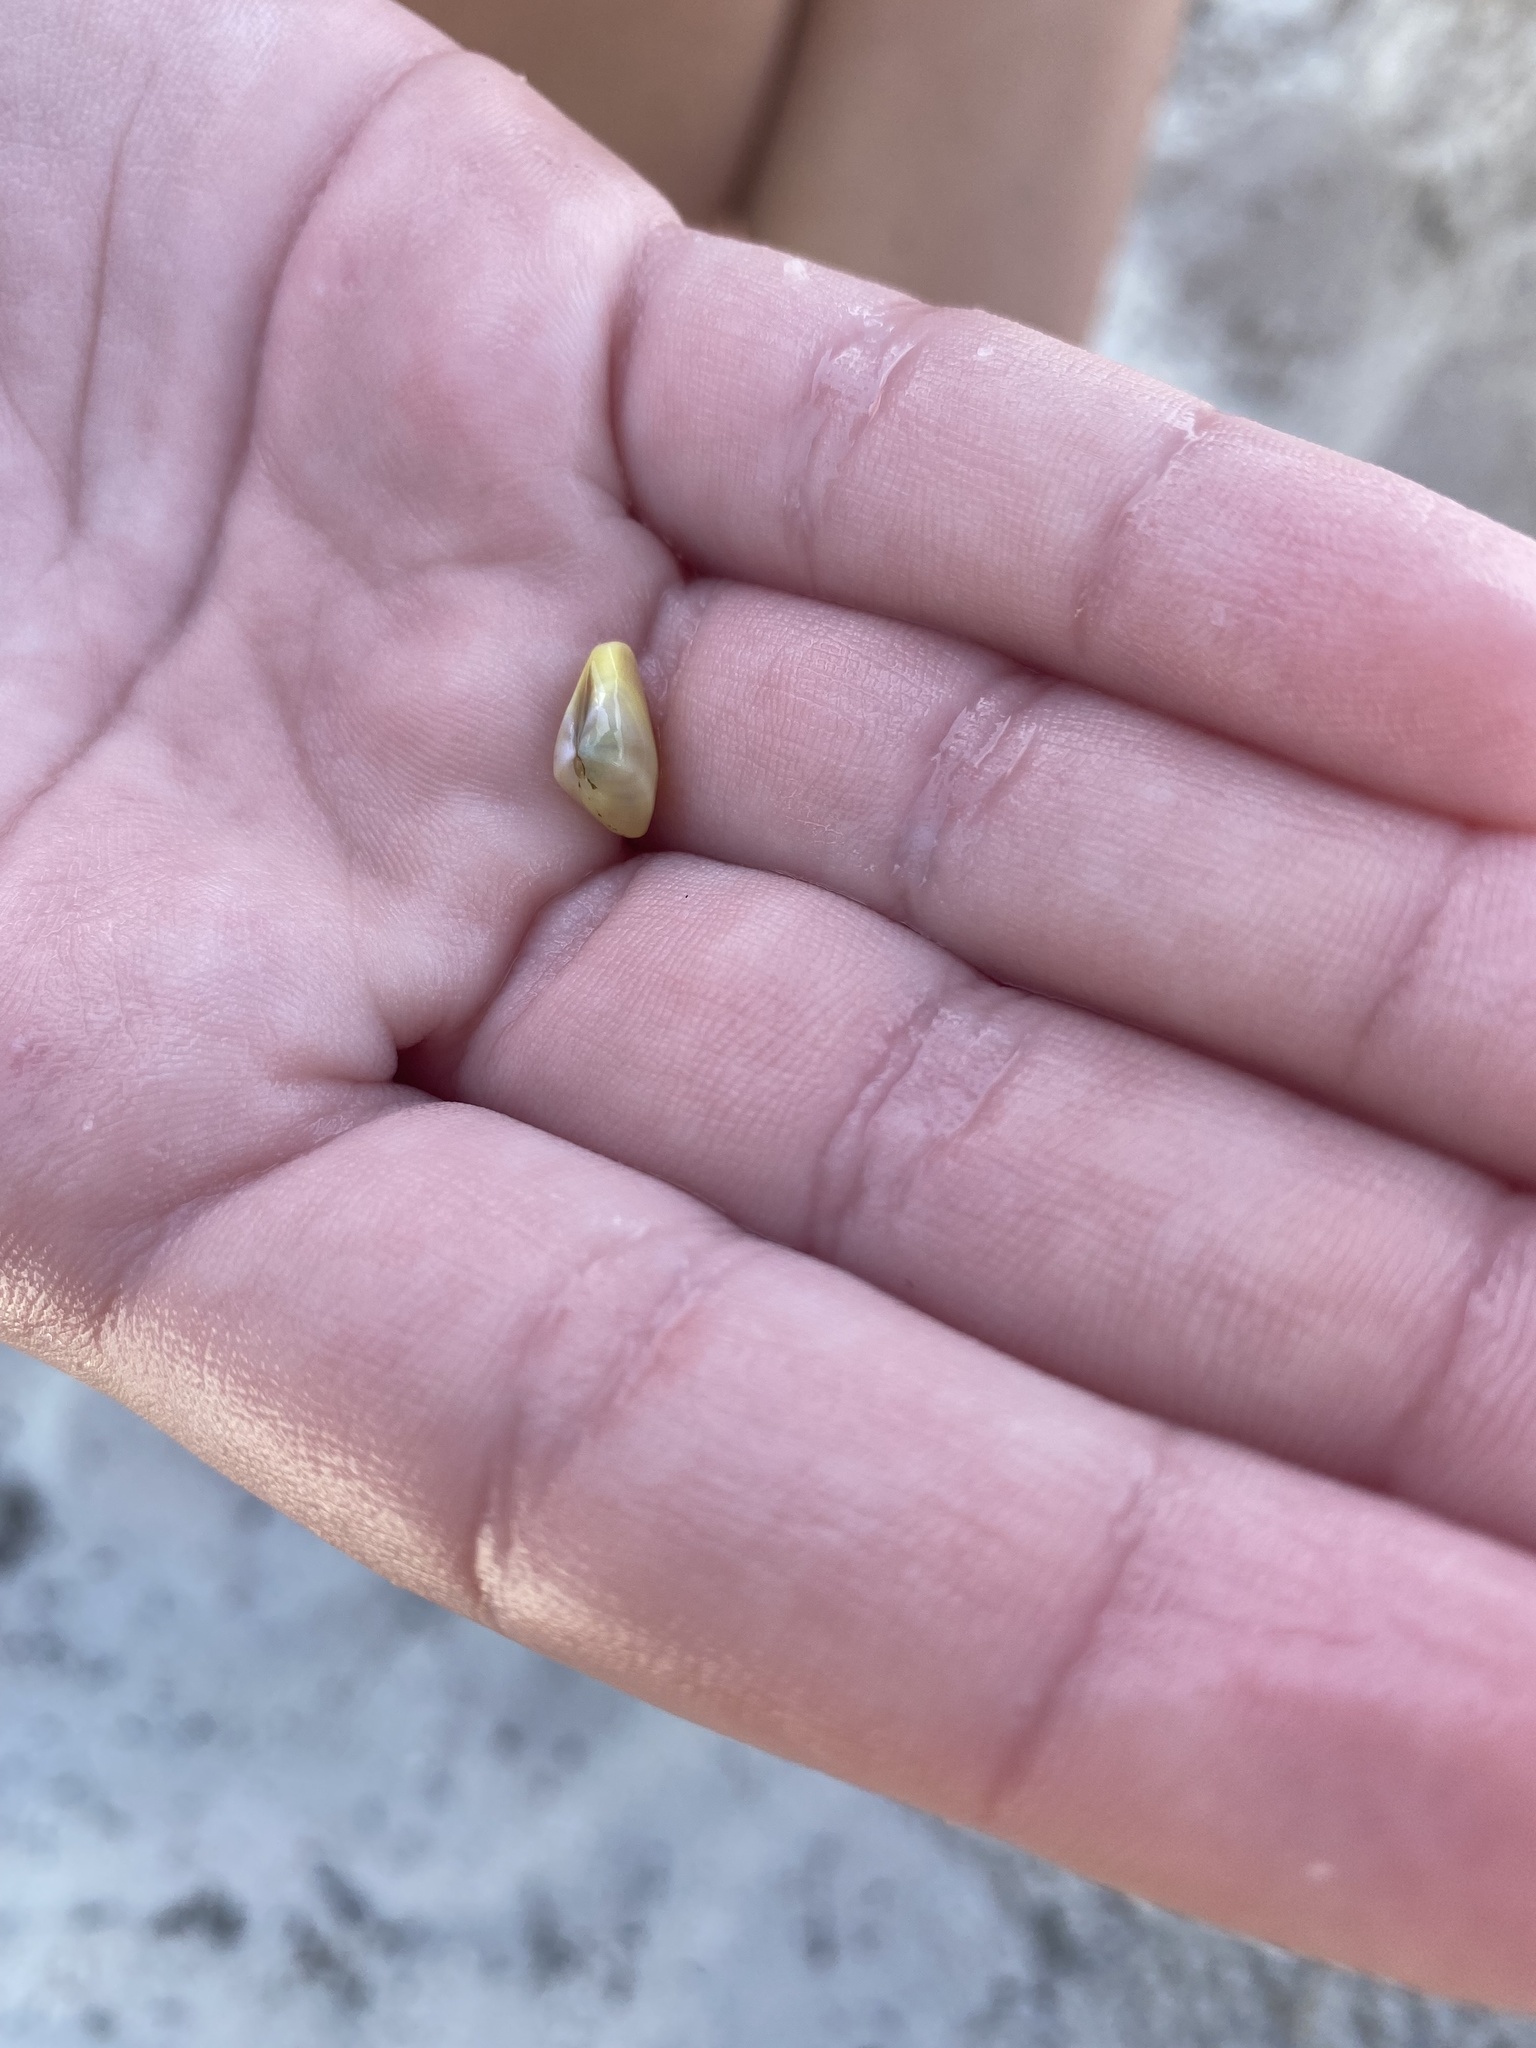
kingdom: Animalia
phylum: Mollusca
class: Bivalvia
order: Cardiida
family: Donacidae
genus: Donax
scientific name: Donax variabilis
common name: Butterfly shell
